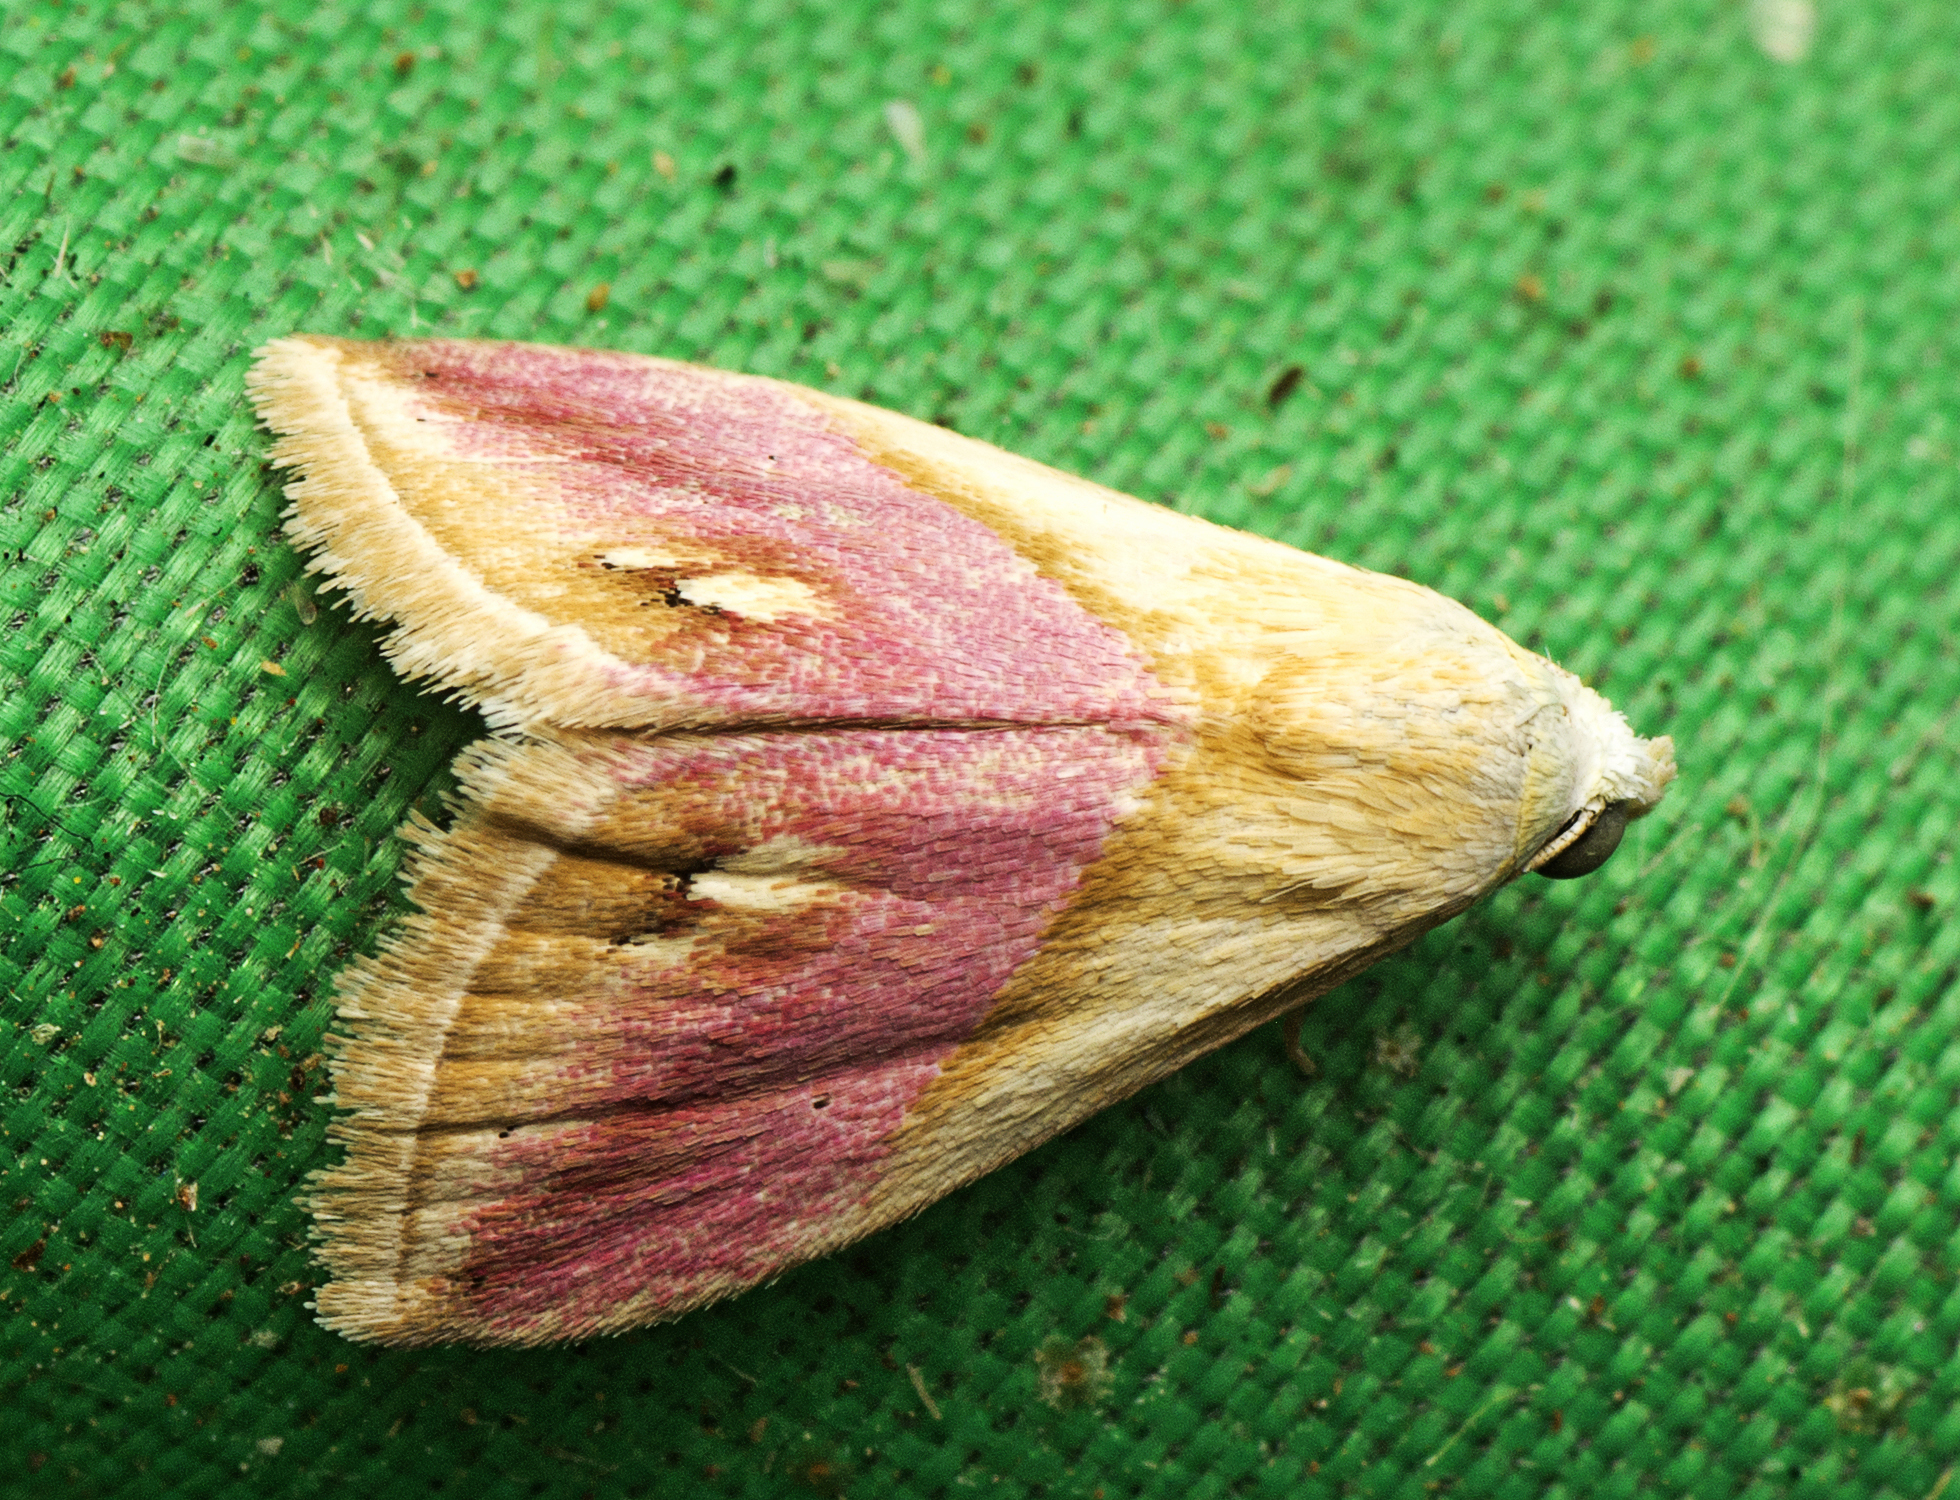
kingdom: Animalia
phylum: Arthropoda
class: Insecta
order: Lepidoptera
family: Noctuidae
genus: Eublemma
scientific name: Eublemma cochylioides
